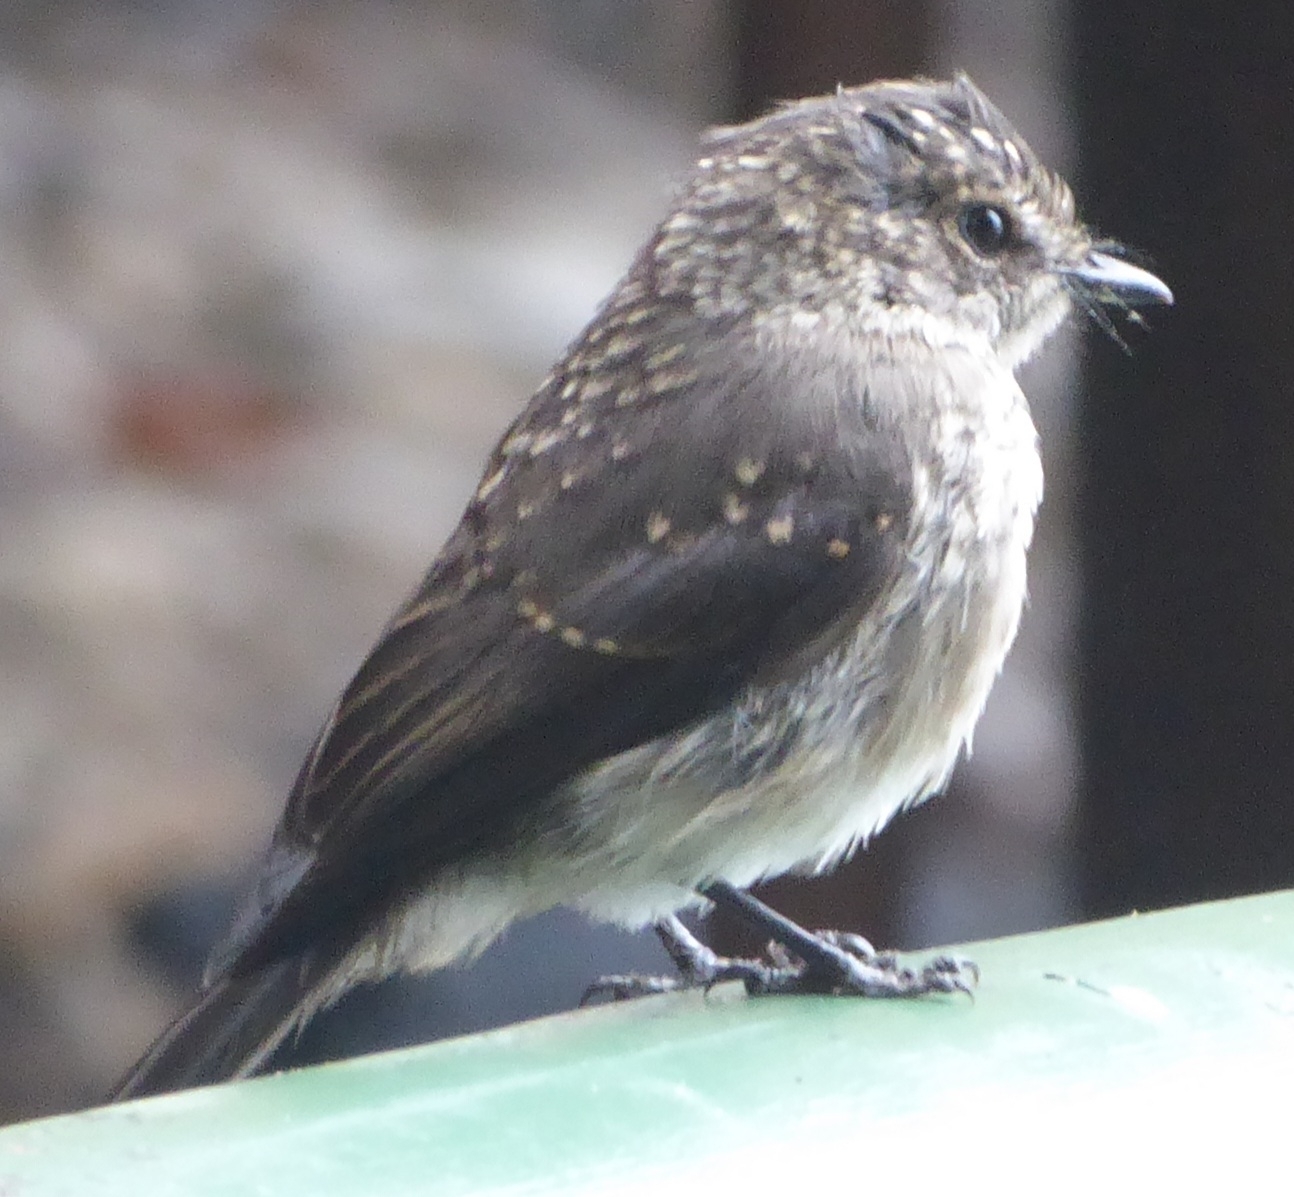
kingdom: Animalia
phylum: Chordata
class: Aves
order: Passeriformes
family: Muscicapidae
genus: Muscicapa
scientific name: Muscicapa adusta
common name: African dusky flycatcher
